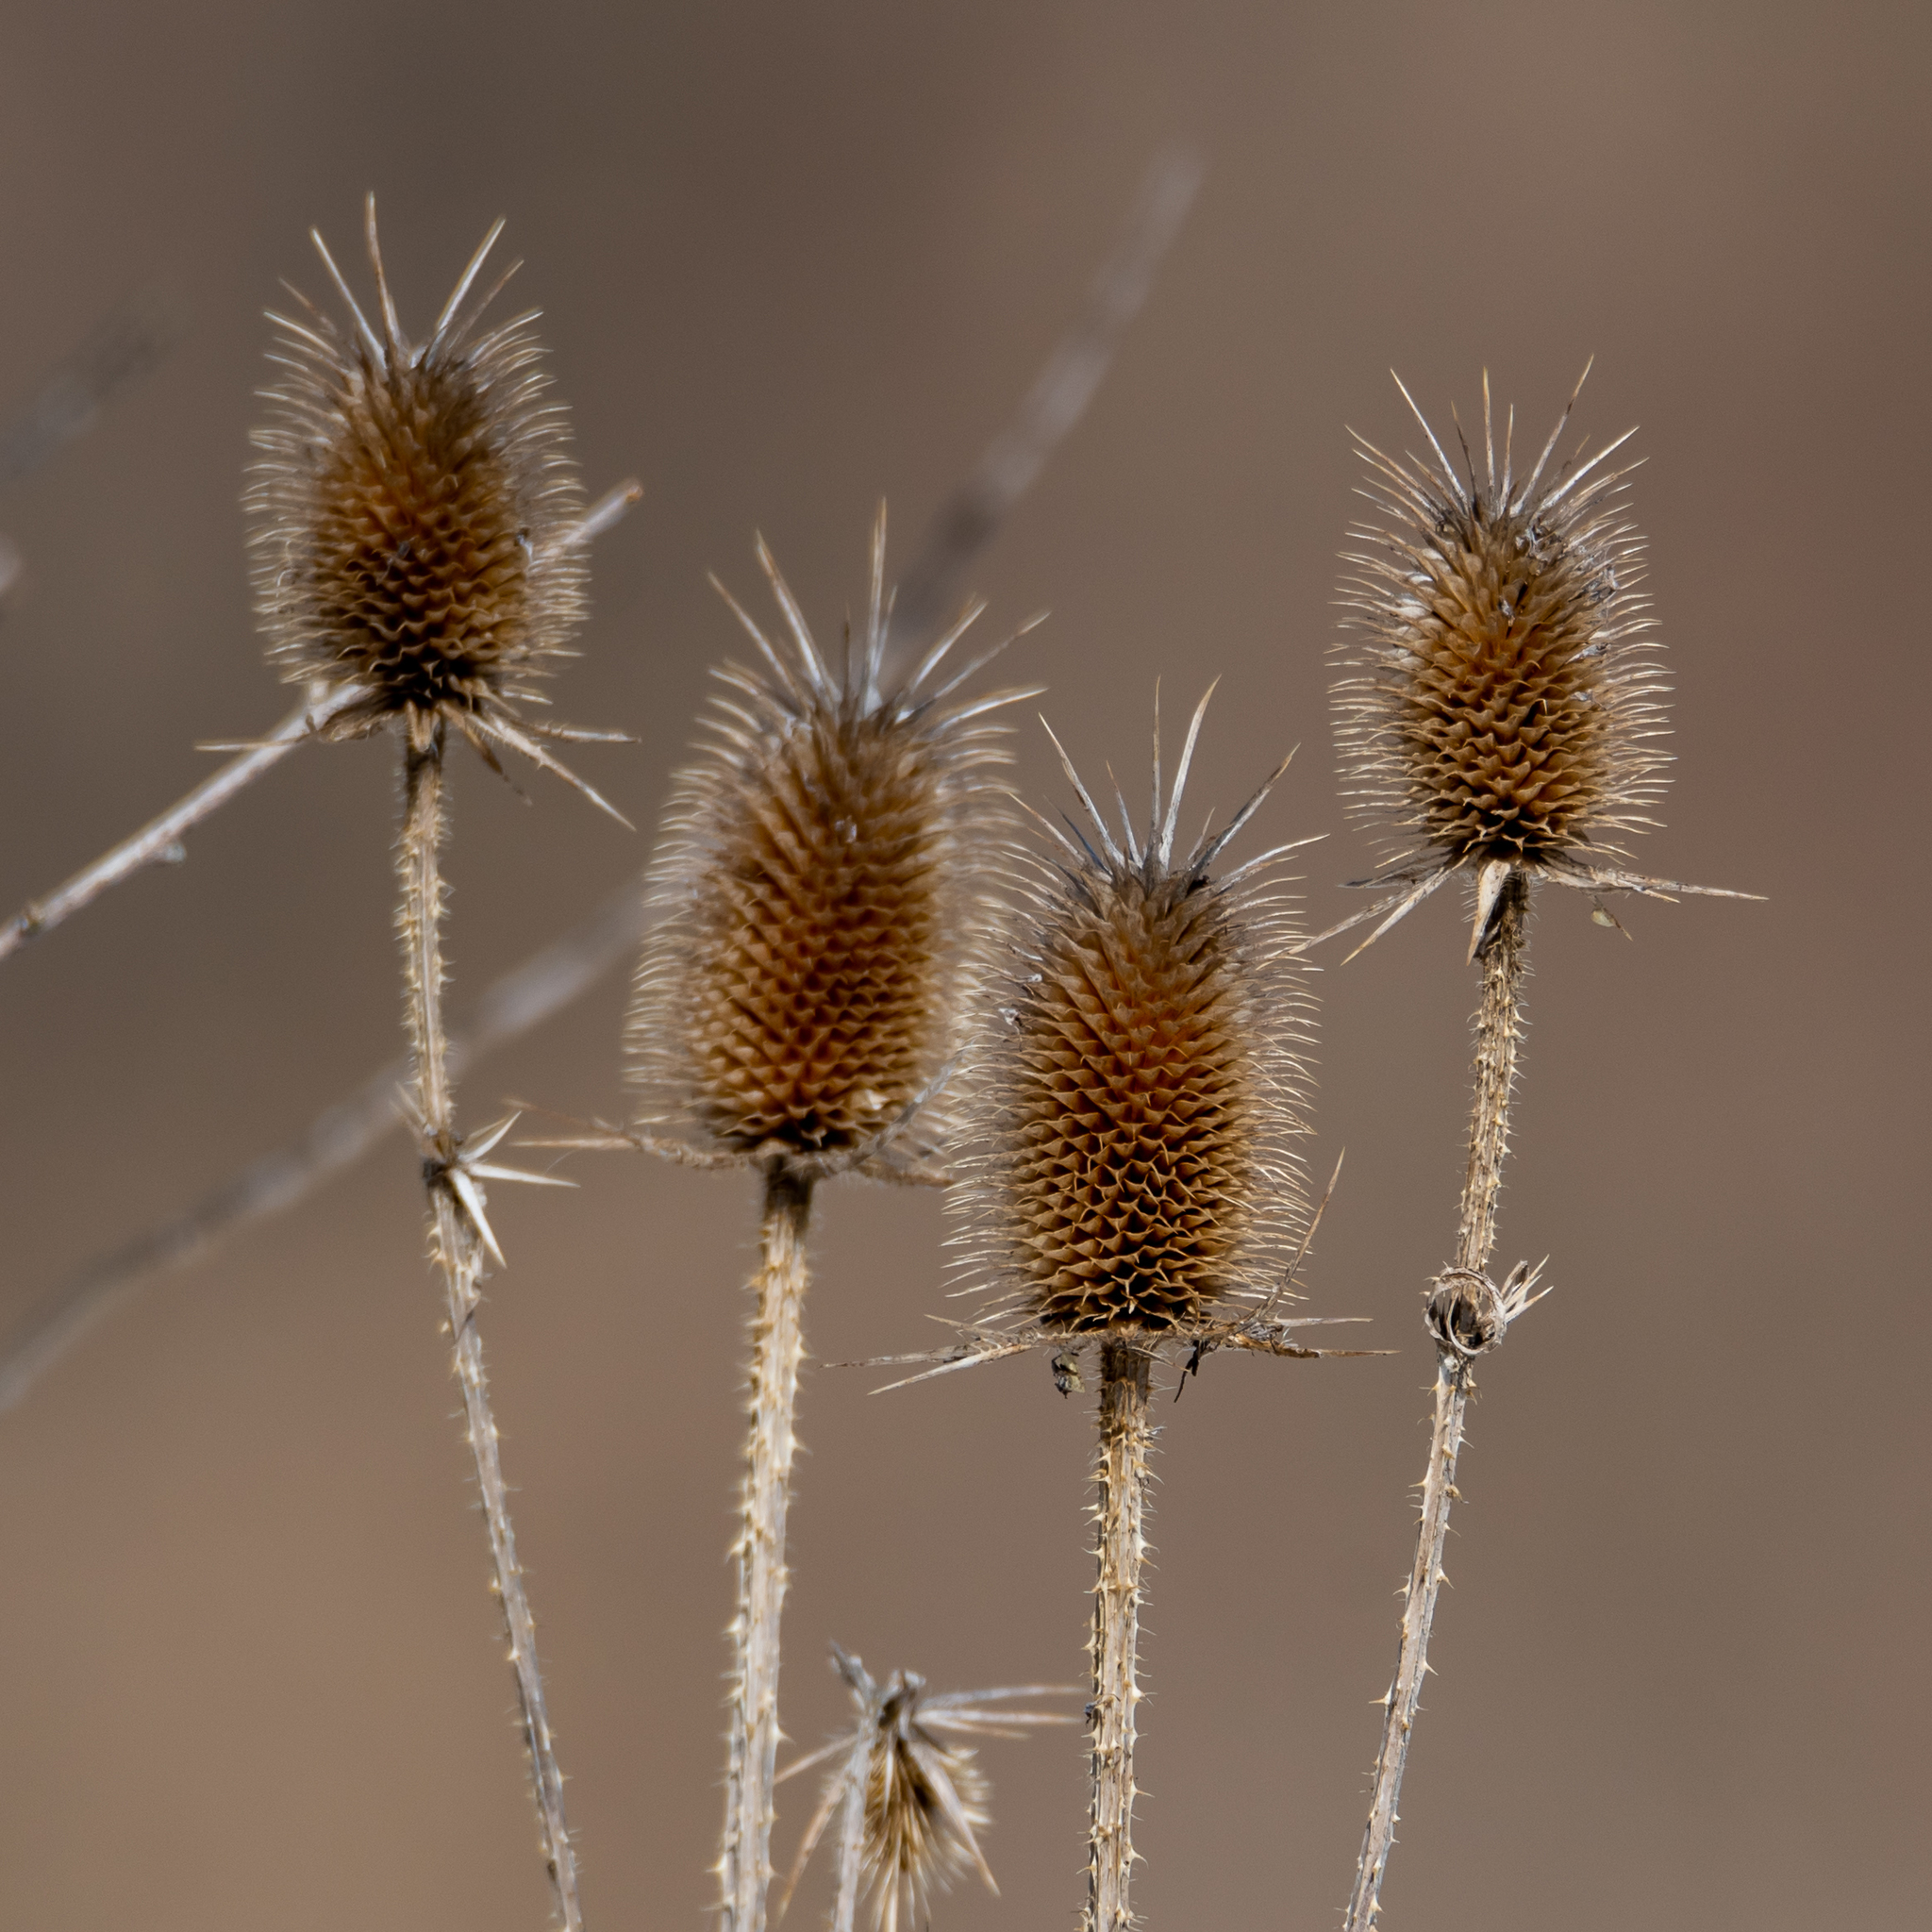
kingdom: Plantae
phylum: Tracheophyta
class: Magnoliopsida
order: Dipsacales
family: Caprifoliaceae
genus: Dipsacus
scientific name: Dipsacus laciniatus
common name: Cut-leaved teasel
